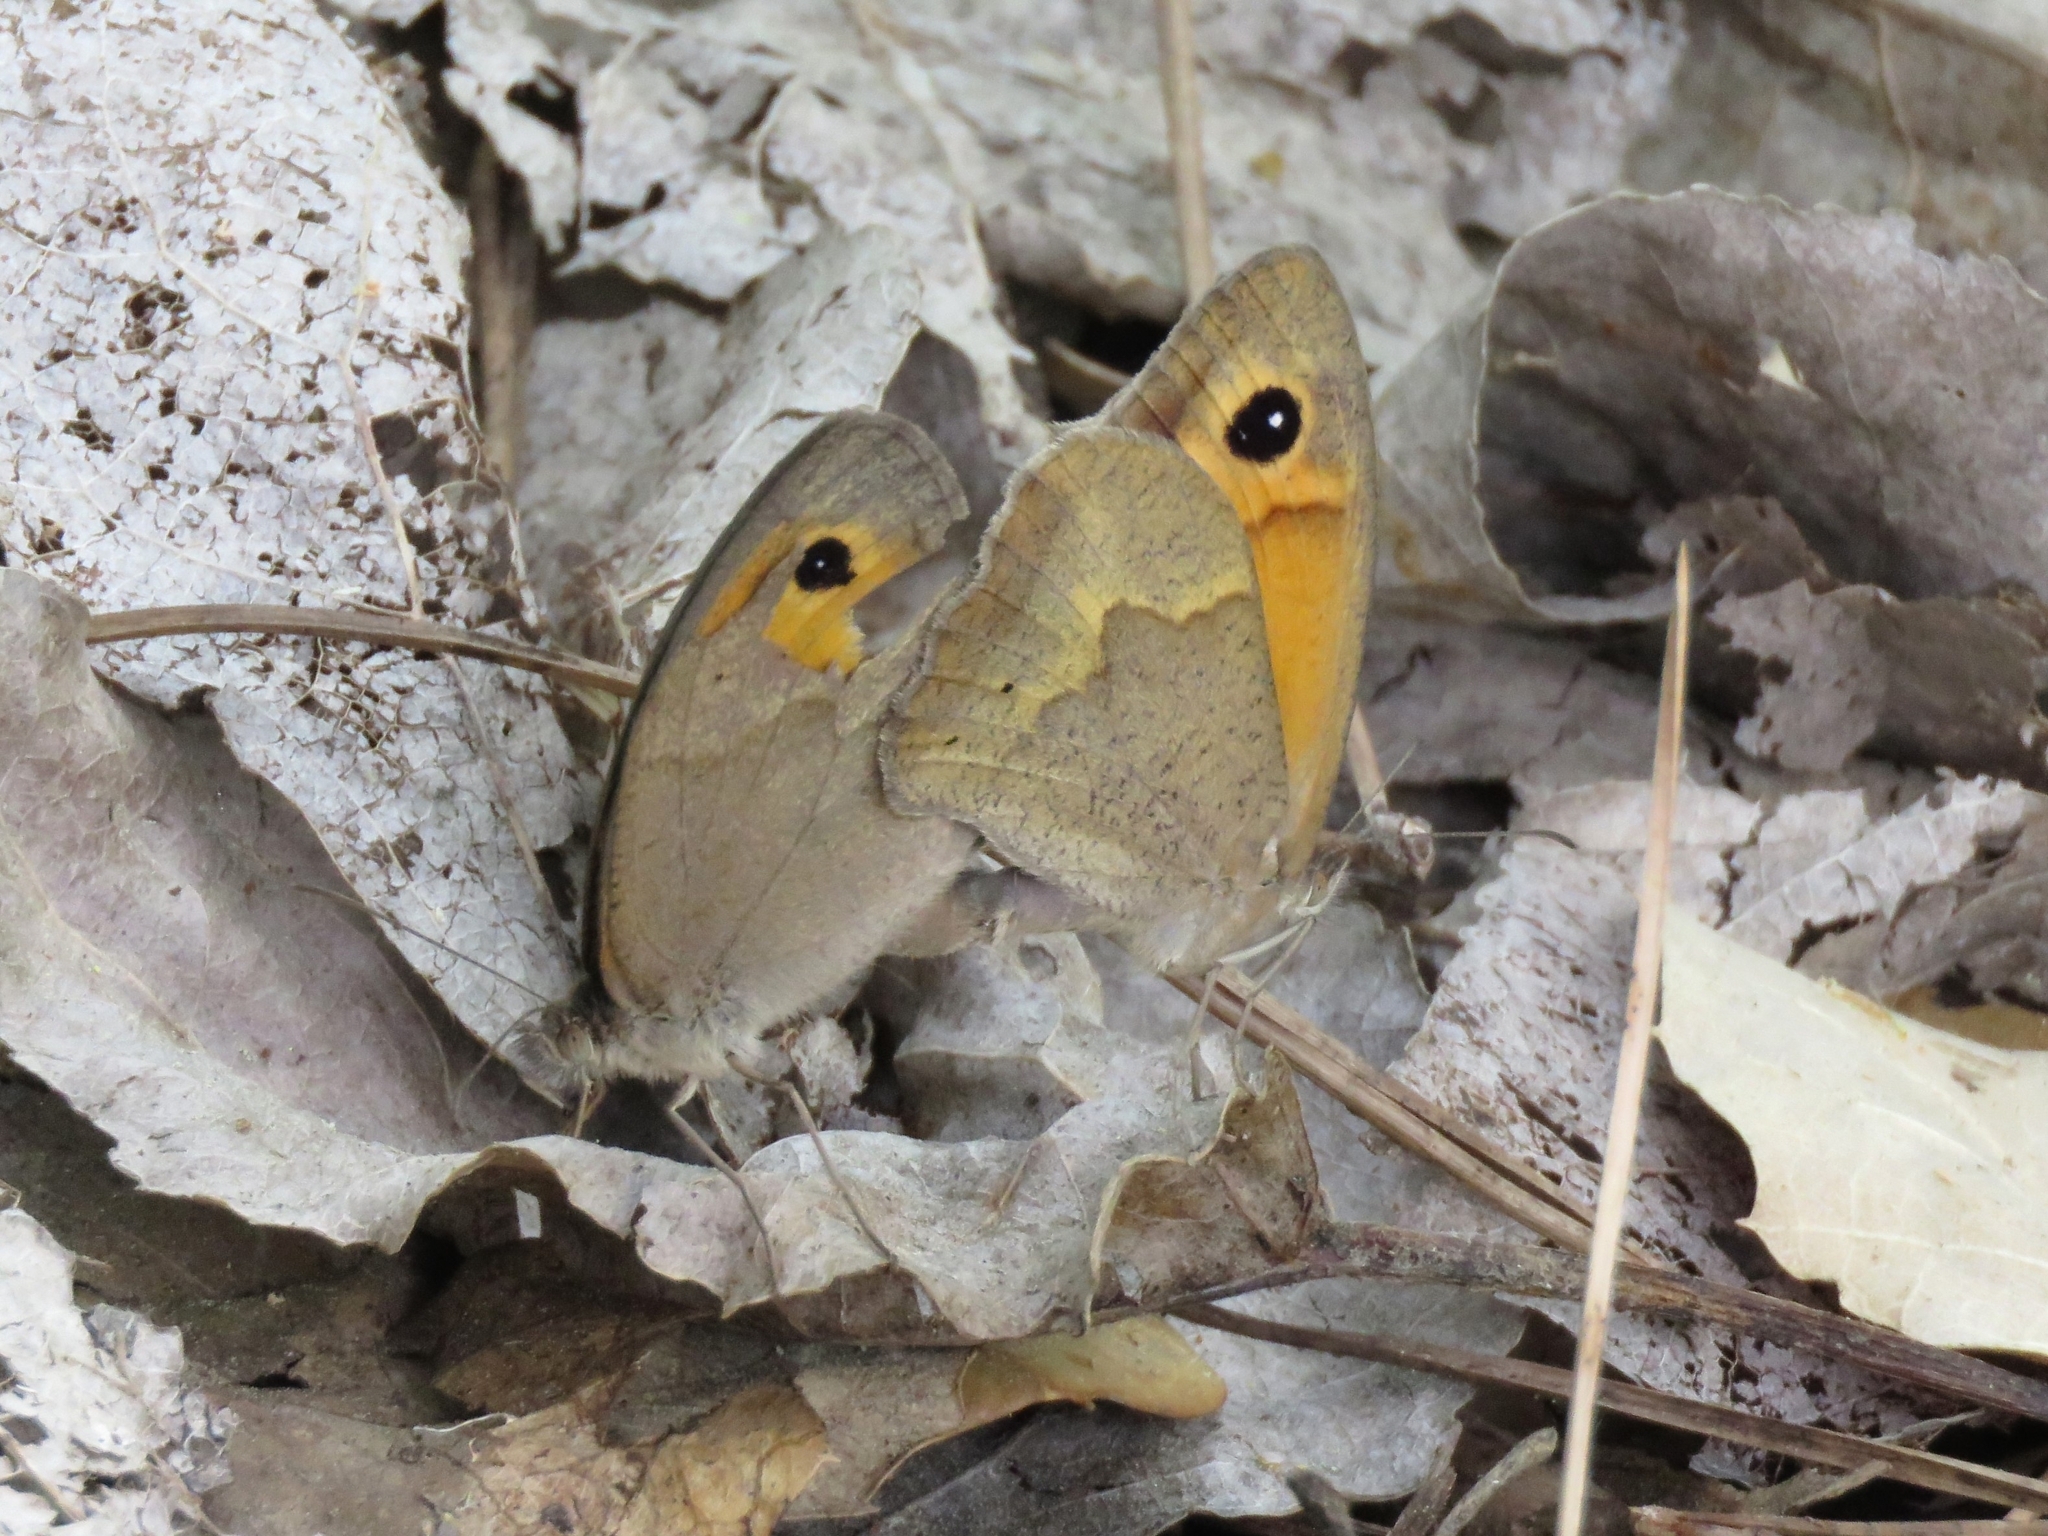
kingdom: Animalia
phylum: Arthropoda
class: Insecta
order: Lepidoptera
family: Nymphalidae
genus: Maniola
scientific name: Maniola jurtina
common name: Meadow brown
